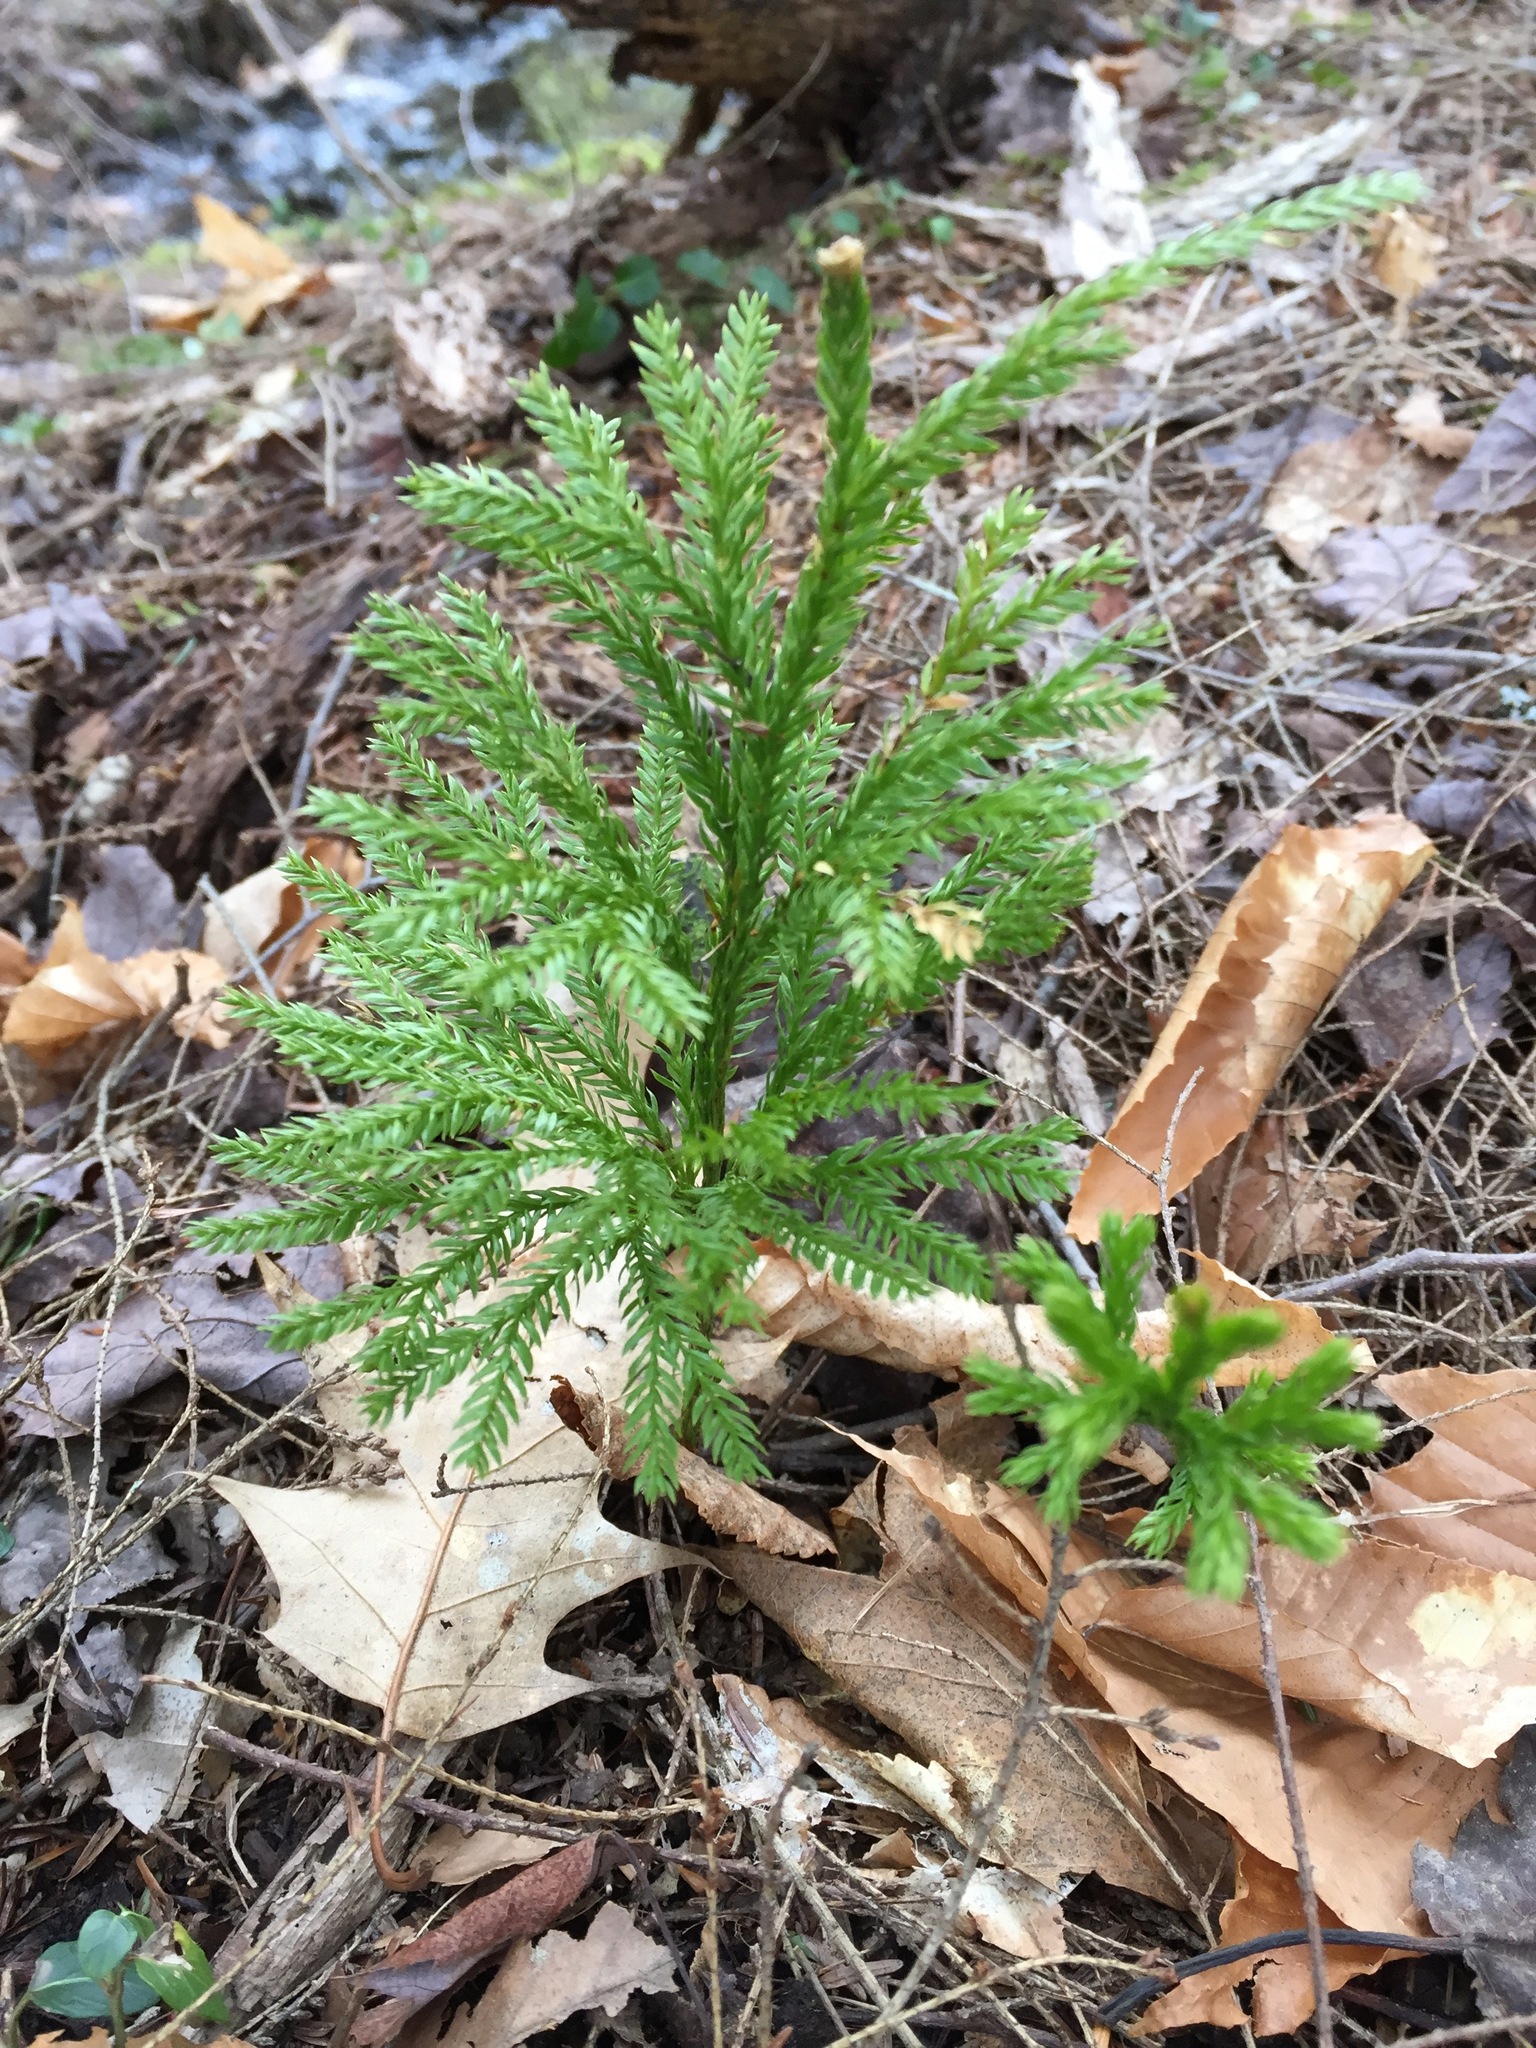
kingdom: Plantae
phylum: Tracheophyta
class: Lycopodiopsida
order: Lycopodiales
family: Lycopodiaceae
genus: Dendrolycopodium
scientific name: Dendrolycopodium obscurum
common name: Common ground-pine
